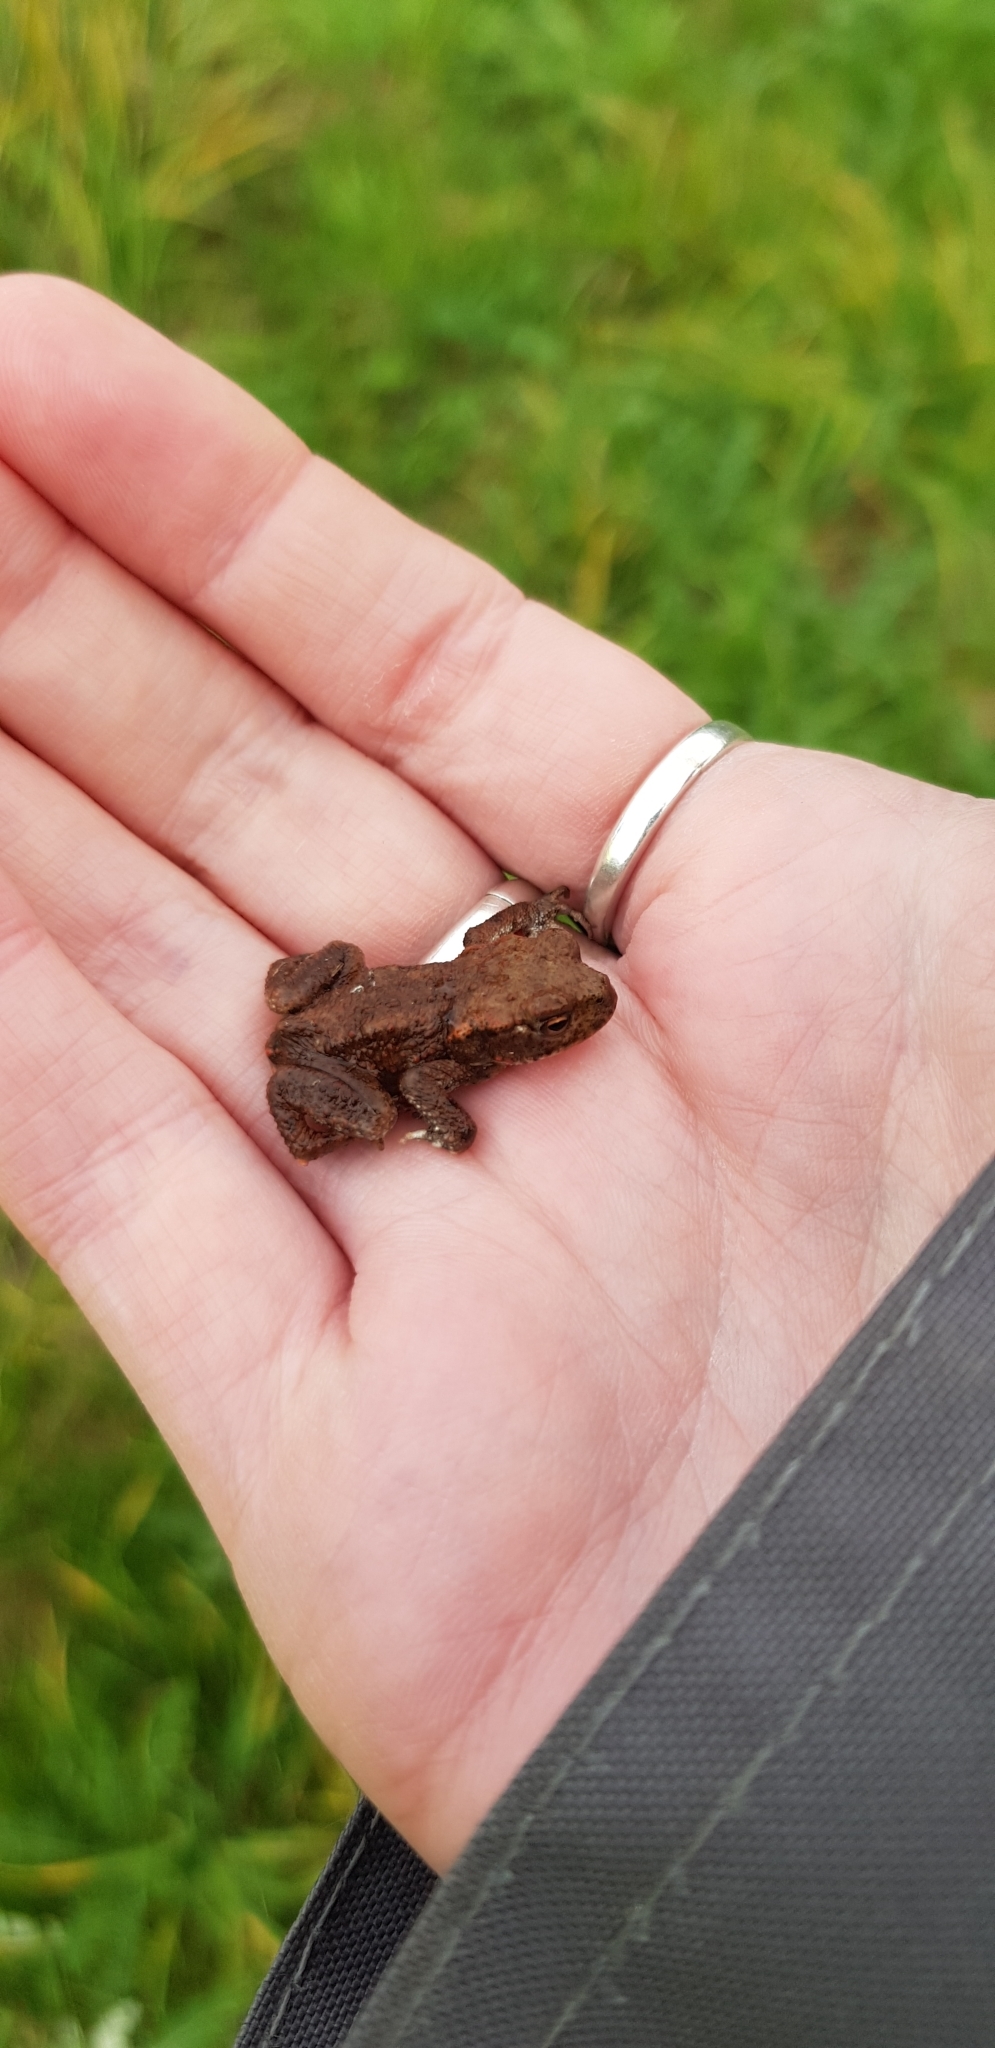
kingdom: Animalia
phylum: Chordata
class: Amphibia
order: Anura
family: Bufonidae
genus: Bufo
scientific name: Bufo bufo
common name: Common toad
